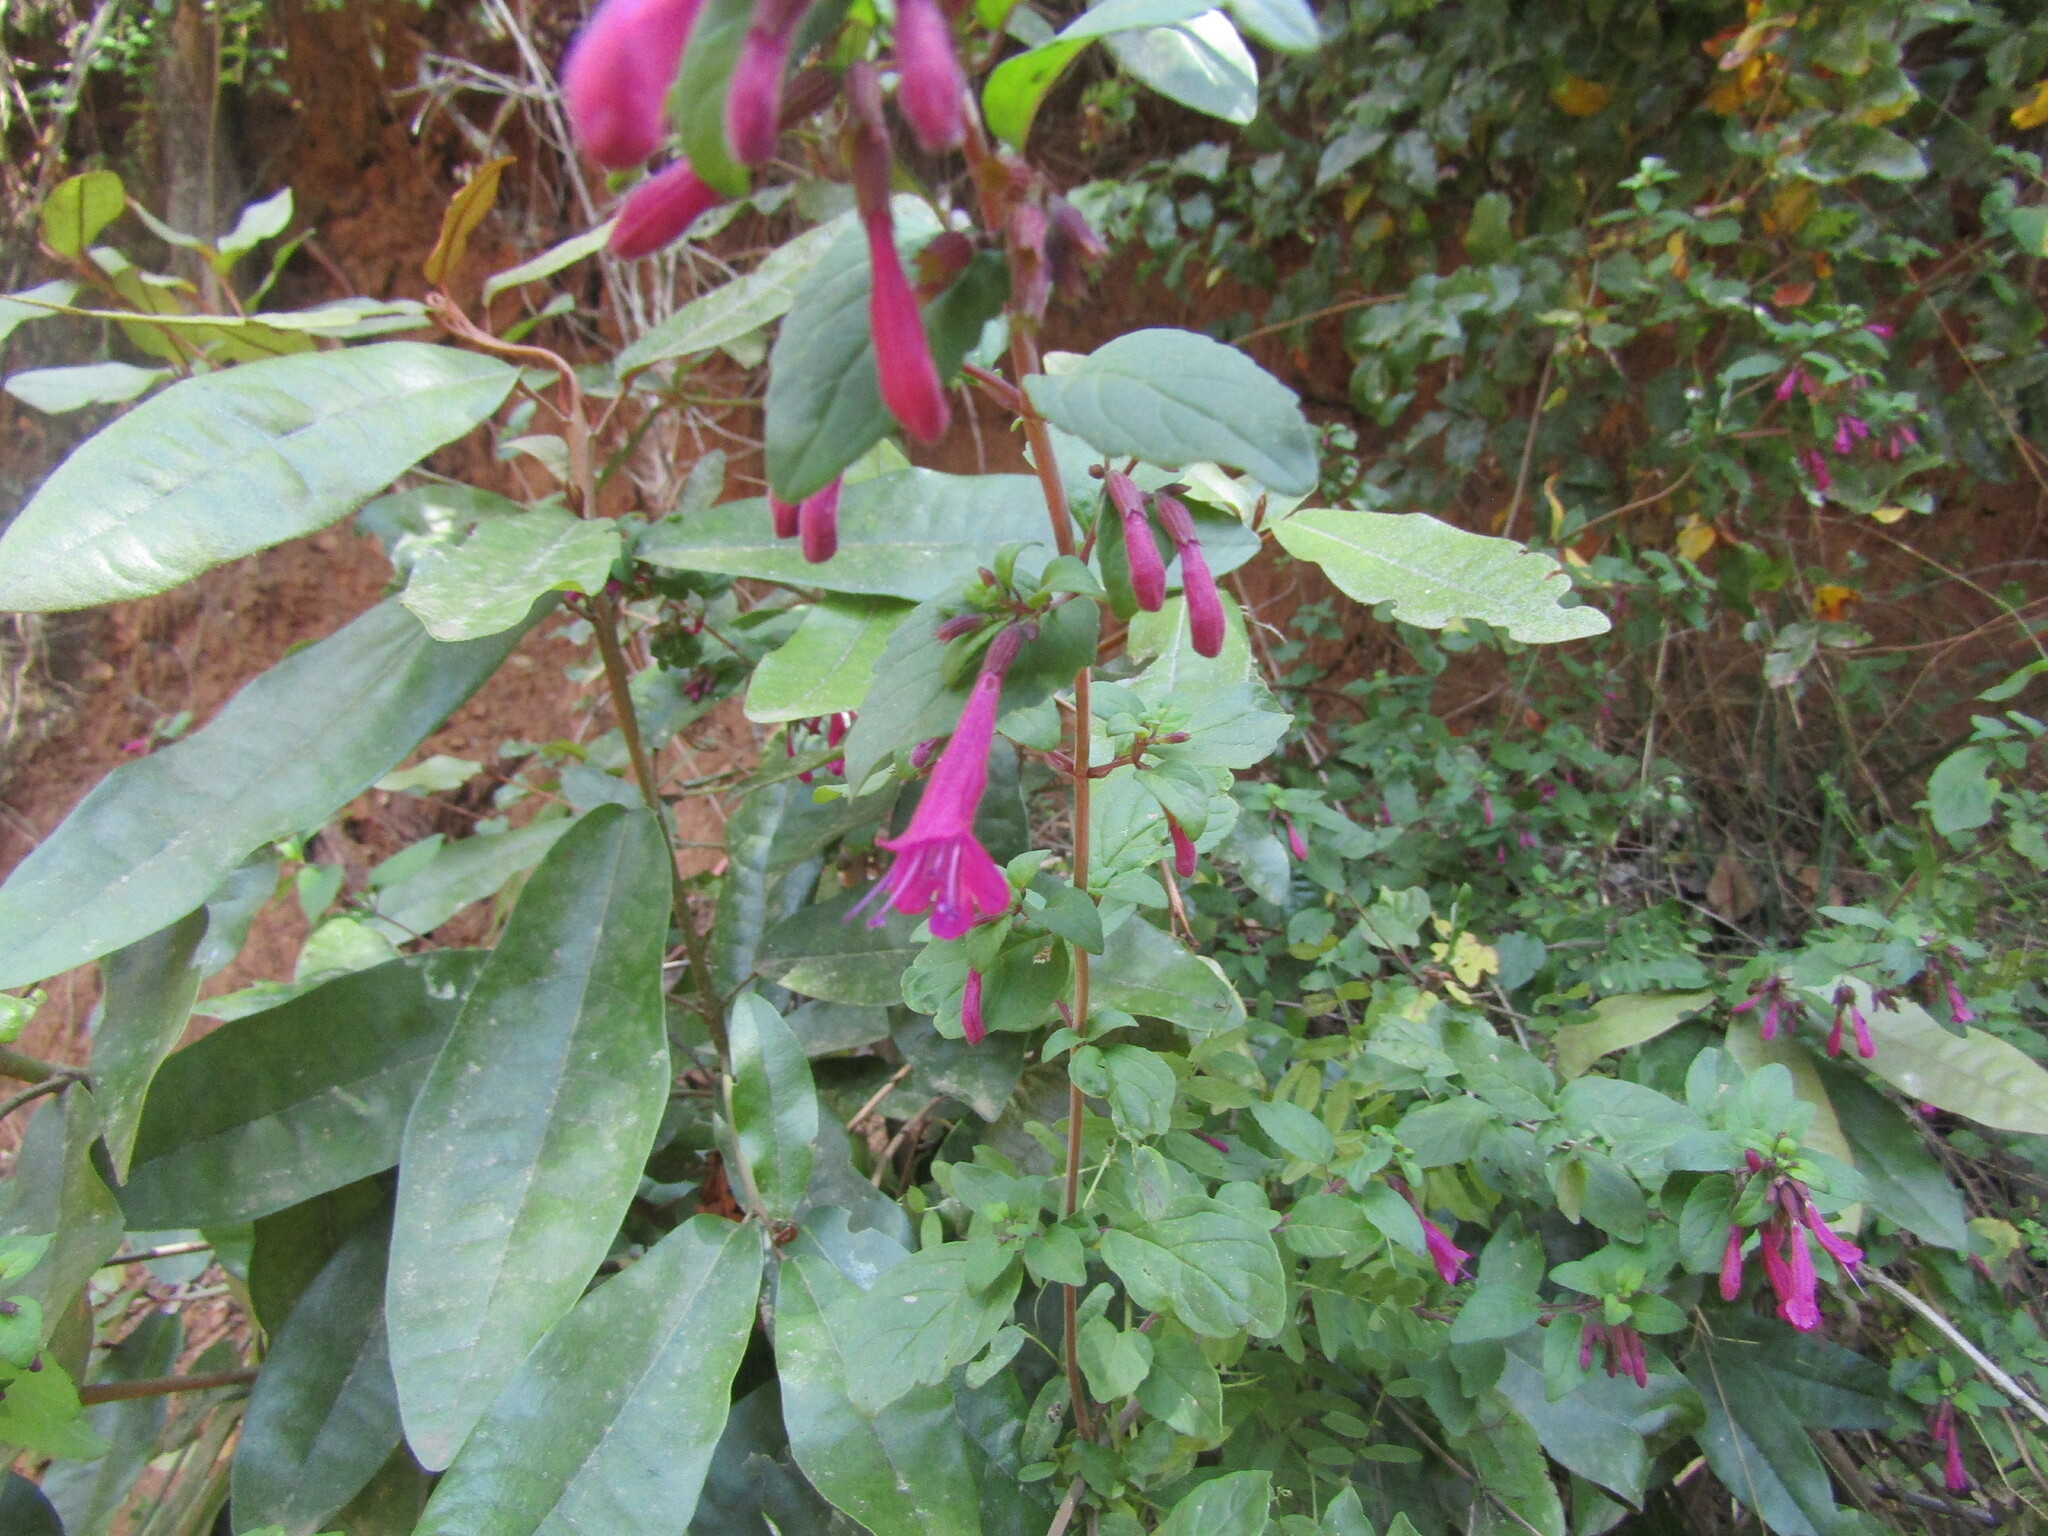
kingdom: Plantae
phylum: Tracheophyta
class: Magnoliopsida
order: Lamiales
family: Lamiaceae
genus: Clinopodium
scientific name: Clinopodium multiflorum
